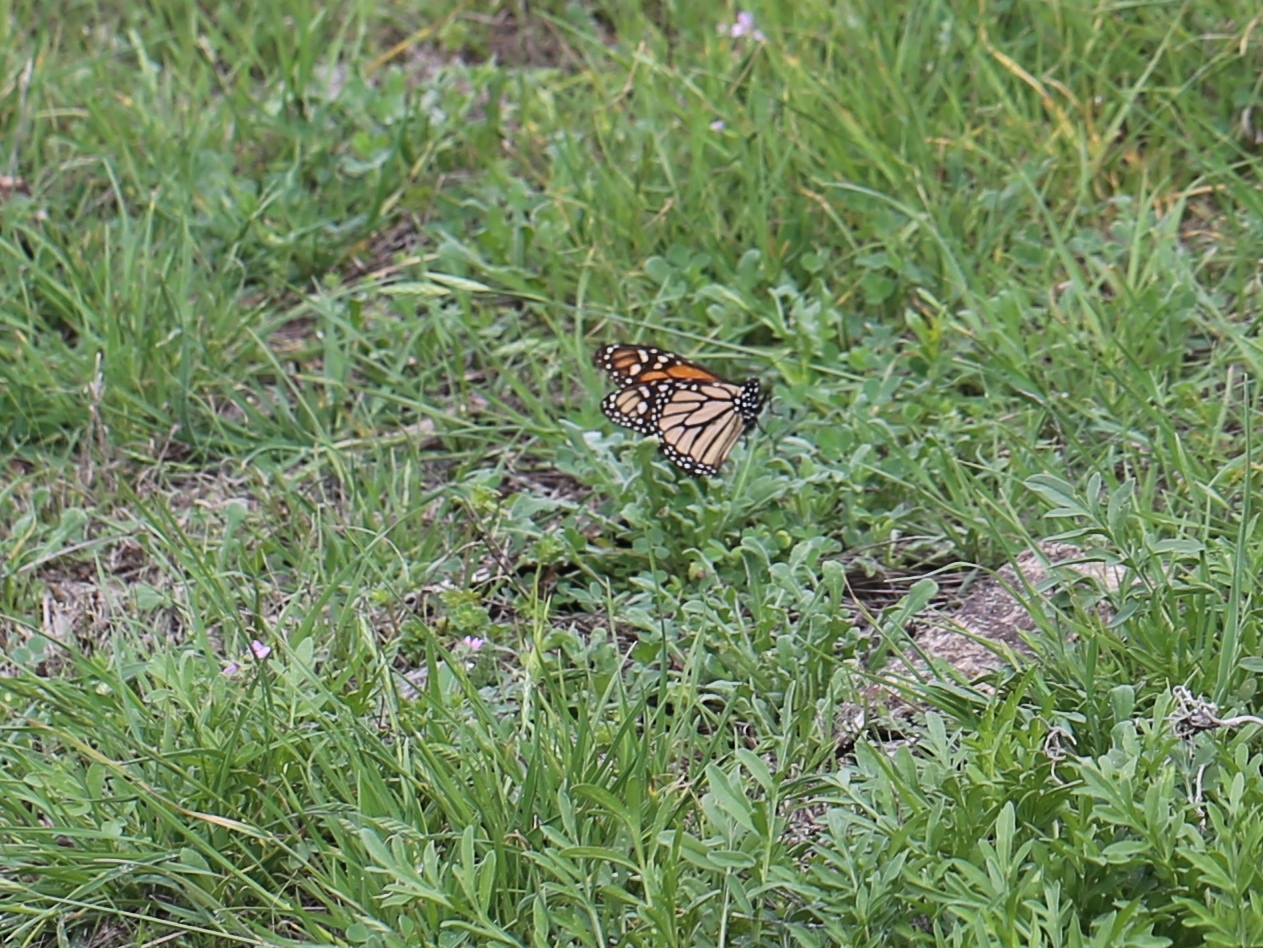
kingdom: Animalia
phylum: Arthropoda
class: Insecta
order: Lepidoptera
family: Nymphalidae
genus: Danaus
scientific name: Danaus plexippus
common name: Monarch
